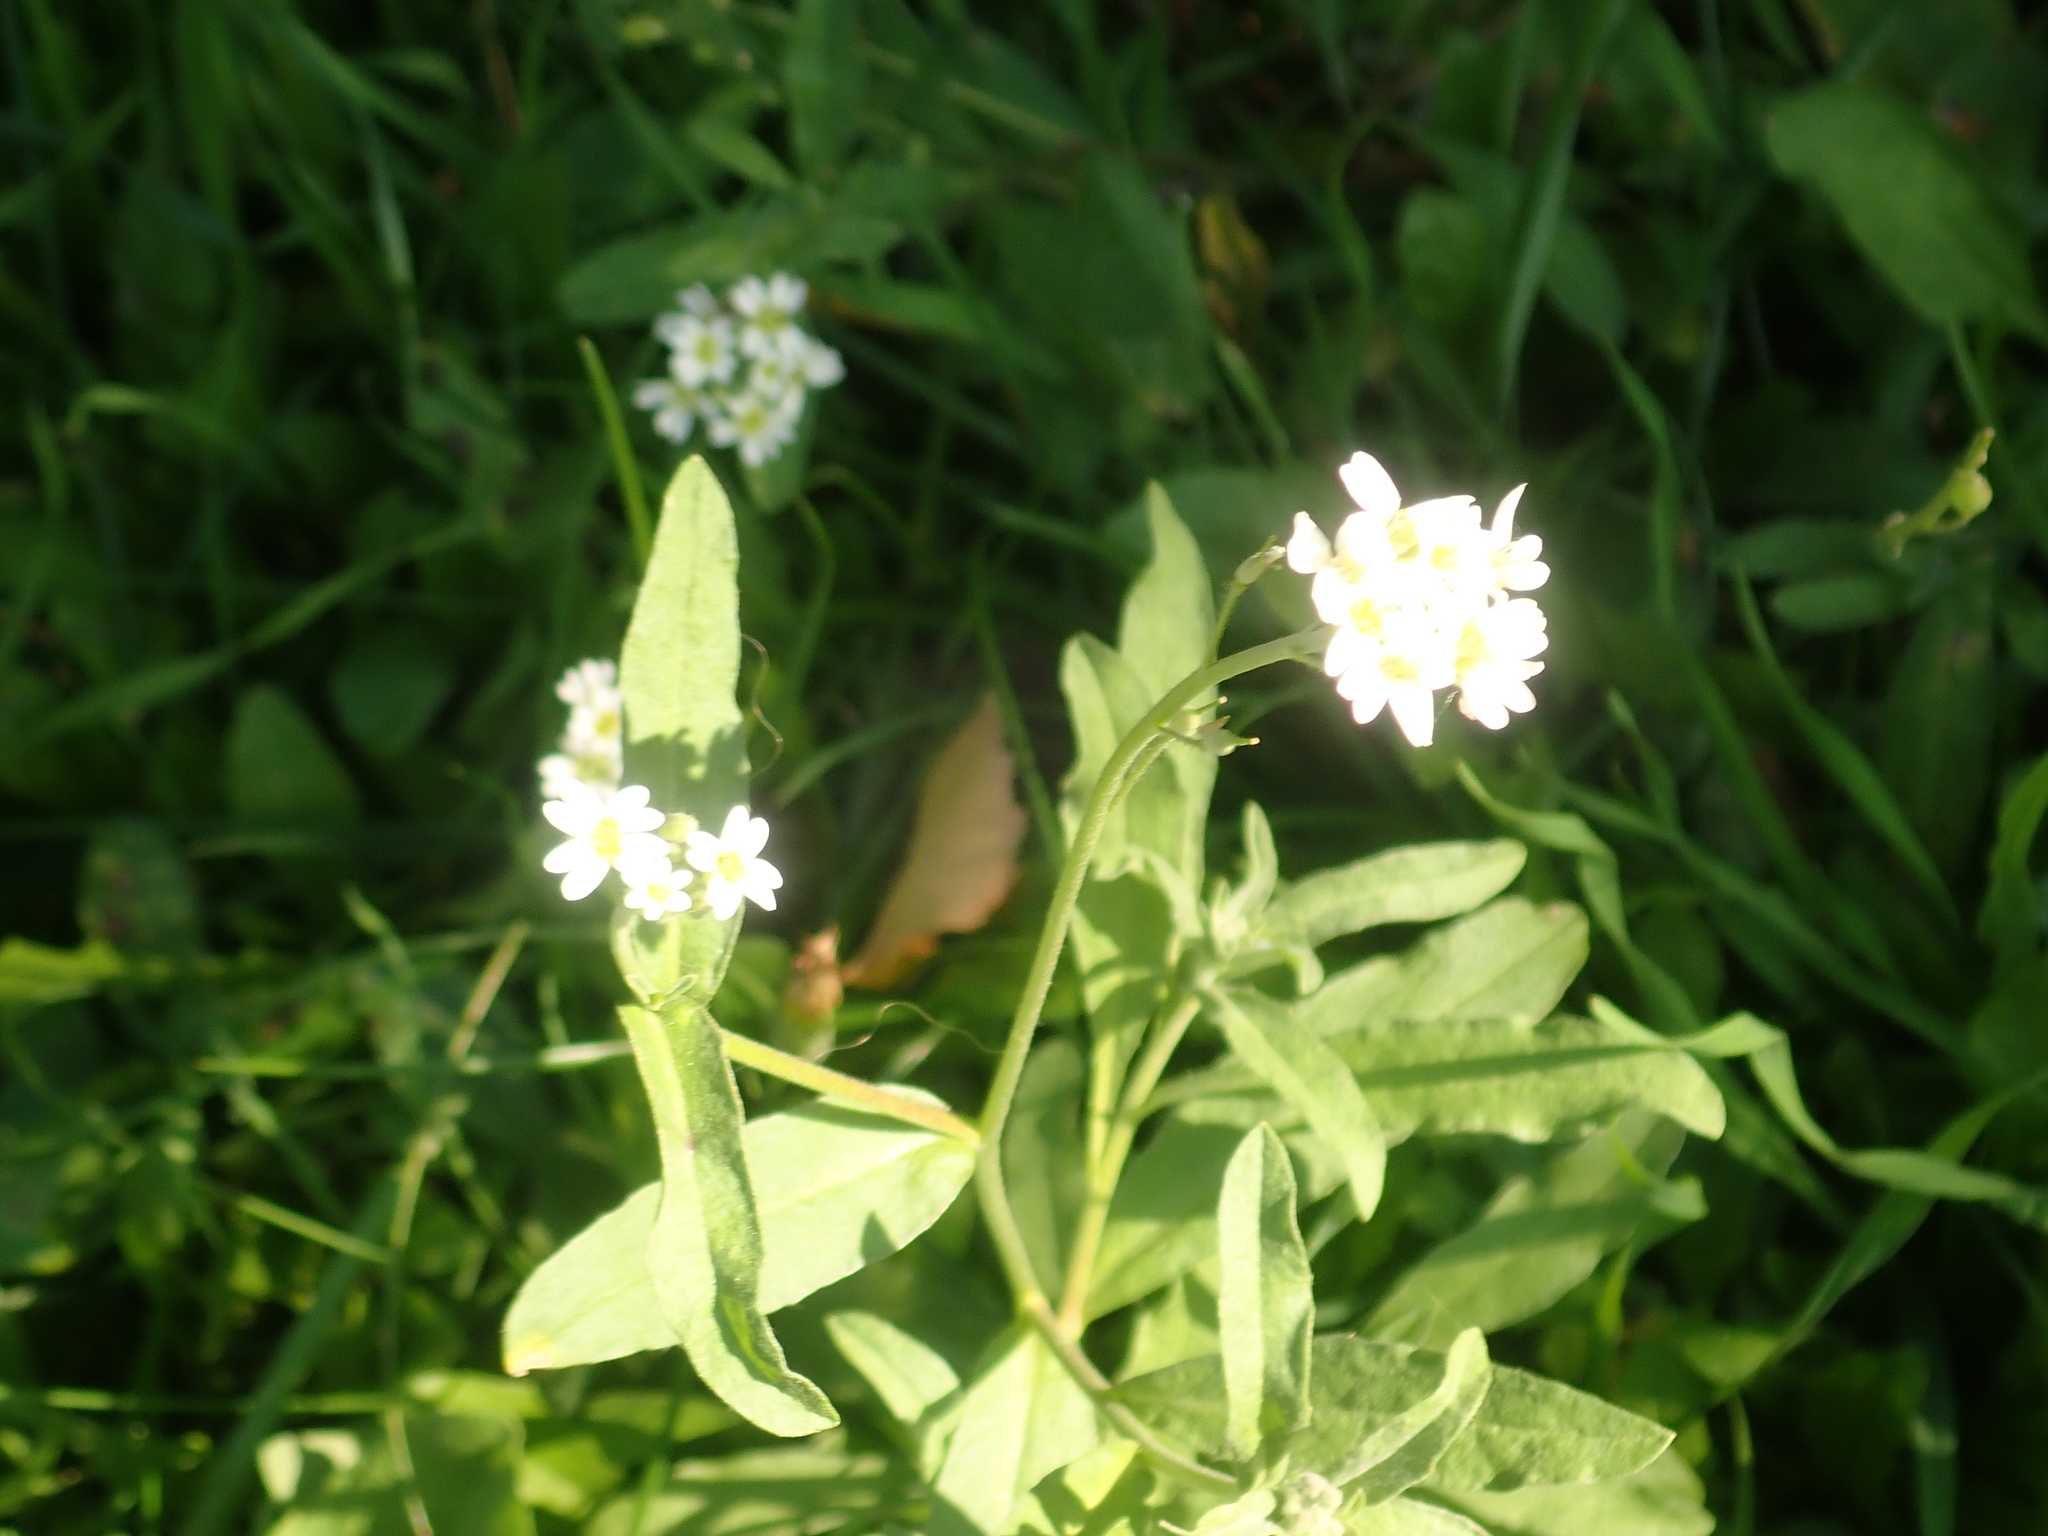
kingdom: Plantae
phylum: Tracheophyta
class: Magnoliopsida
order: Brassicales
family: Brassicaceae
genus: Berteroa
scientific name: Berteroa incana
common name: Hoary alison
